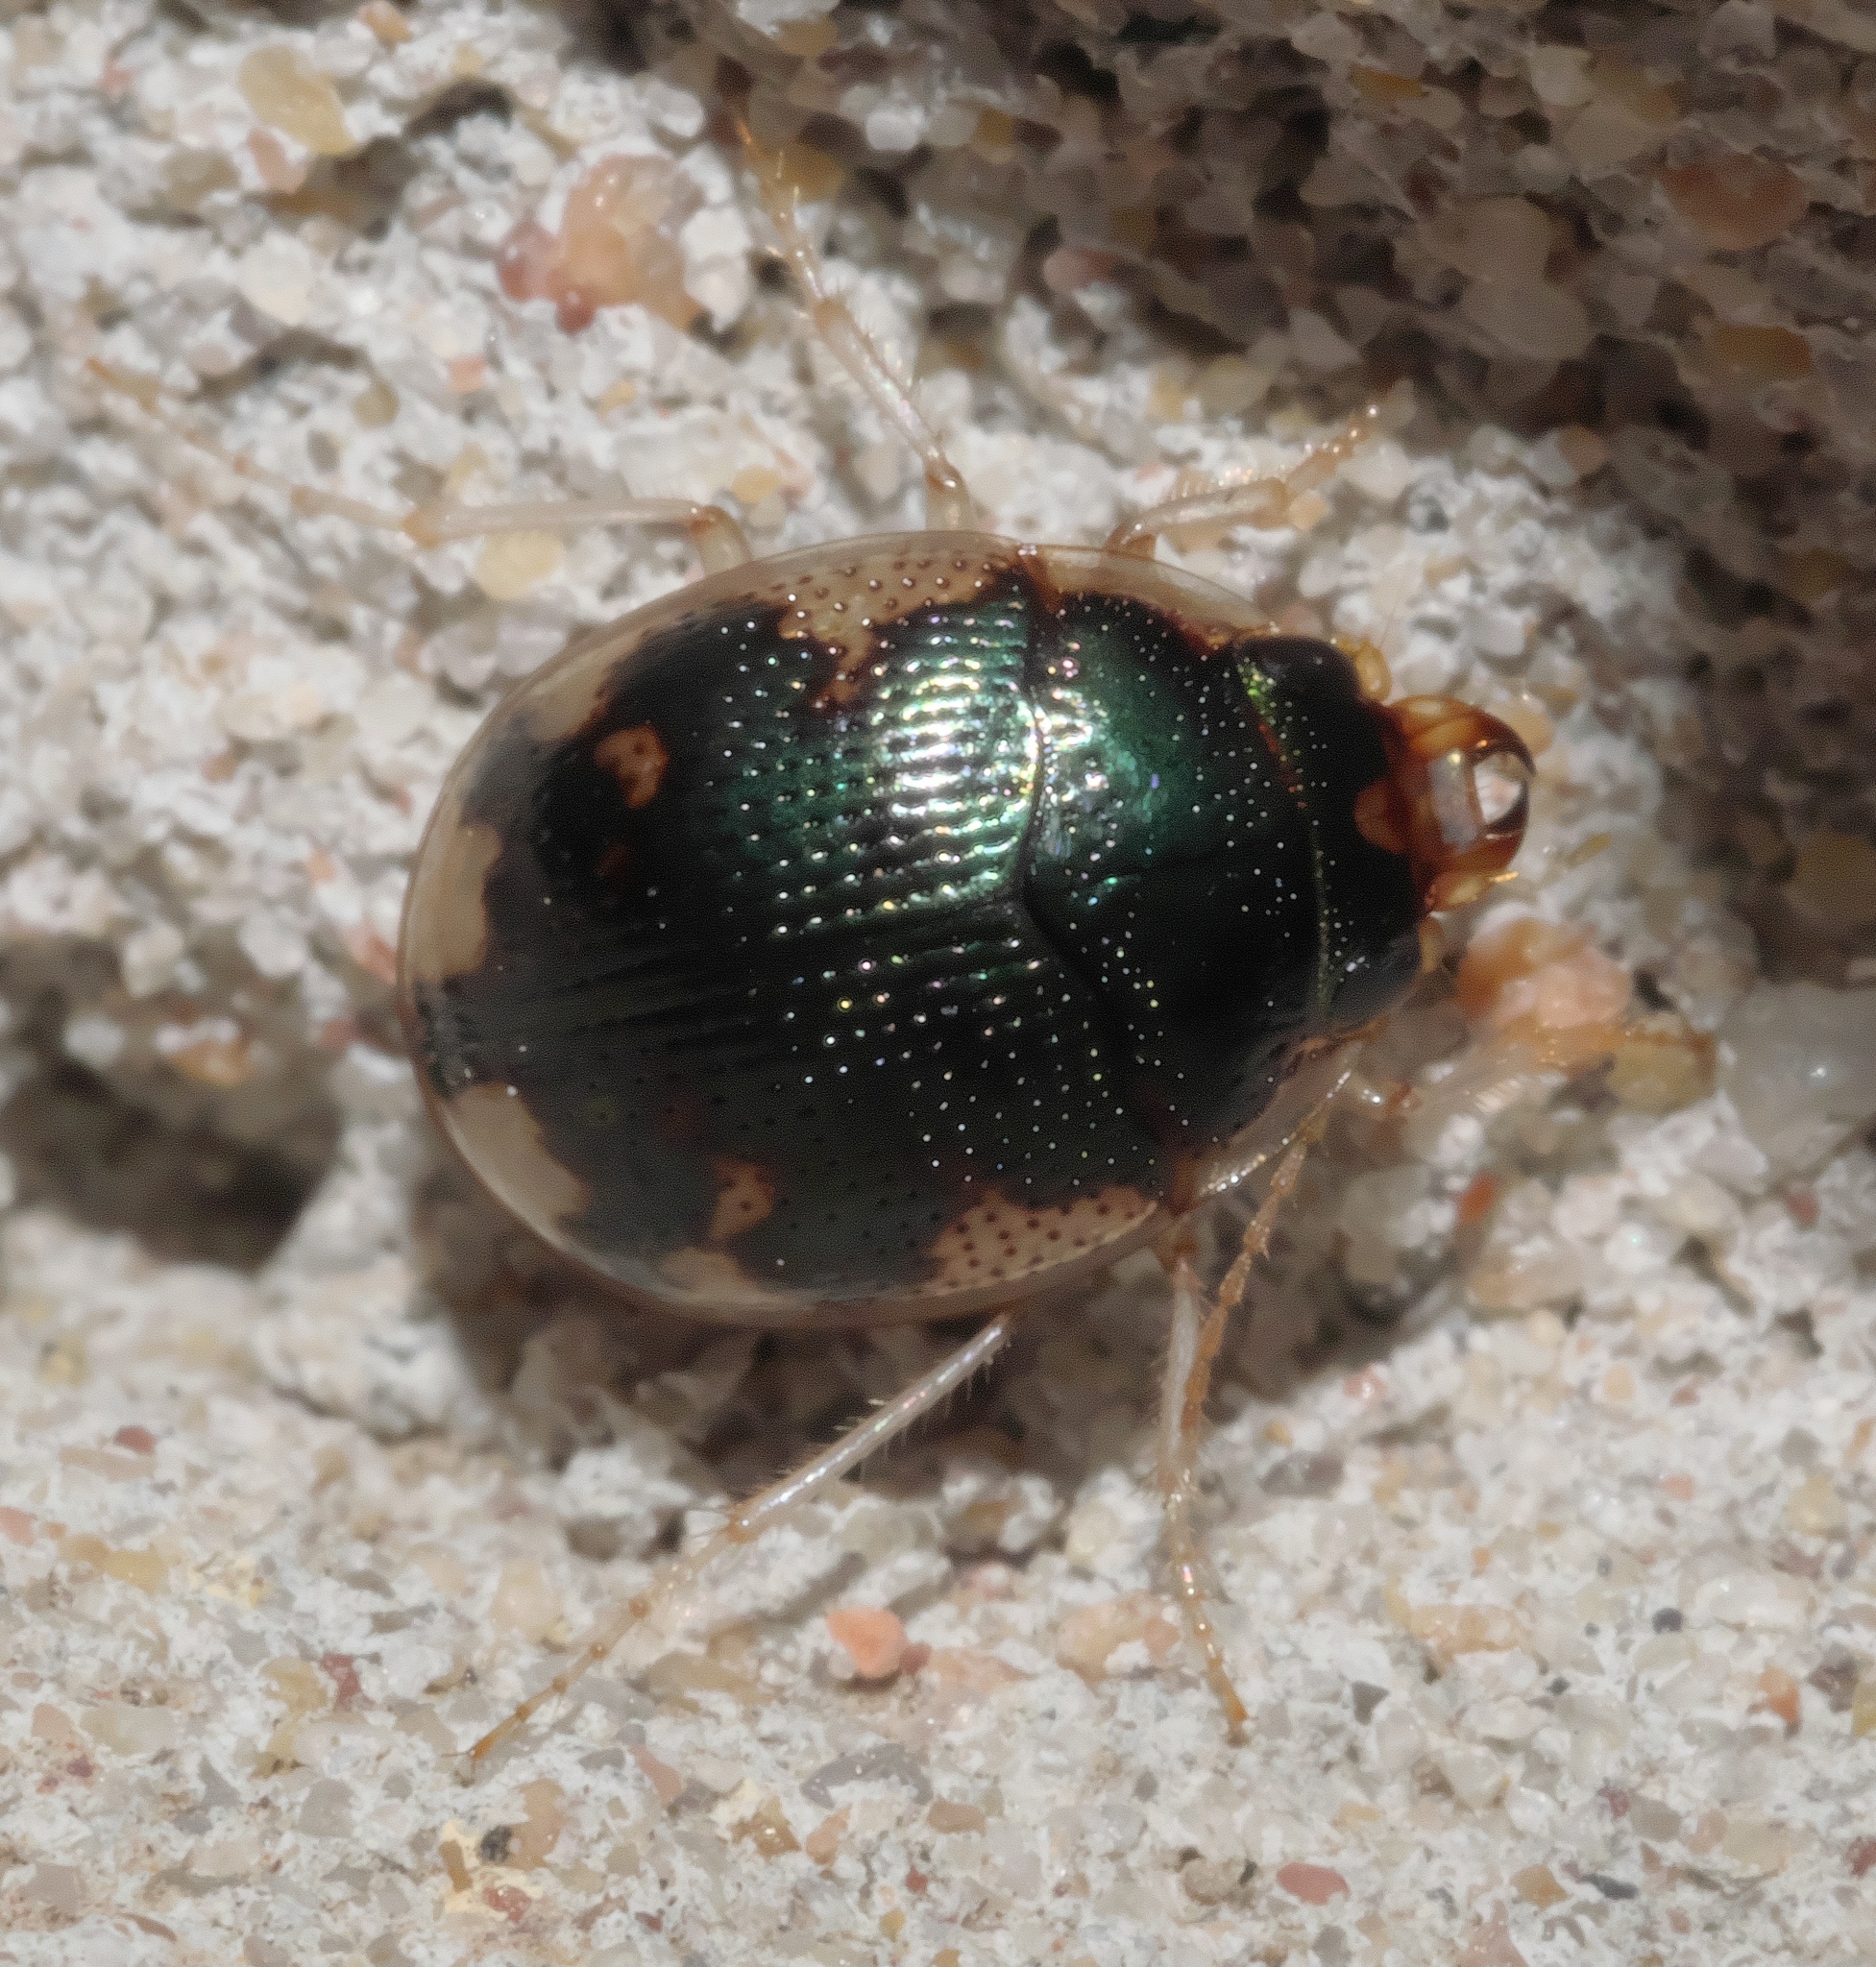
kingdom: Animalia
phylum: Arthropoda
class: Insecta
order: Coleoptera
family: Carabidae
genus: Omophron
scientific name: Omophron americanum
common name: American round sand beetle
